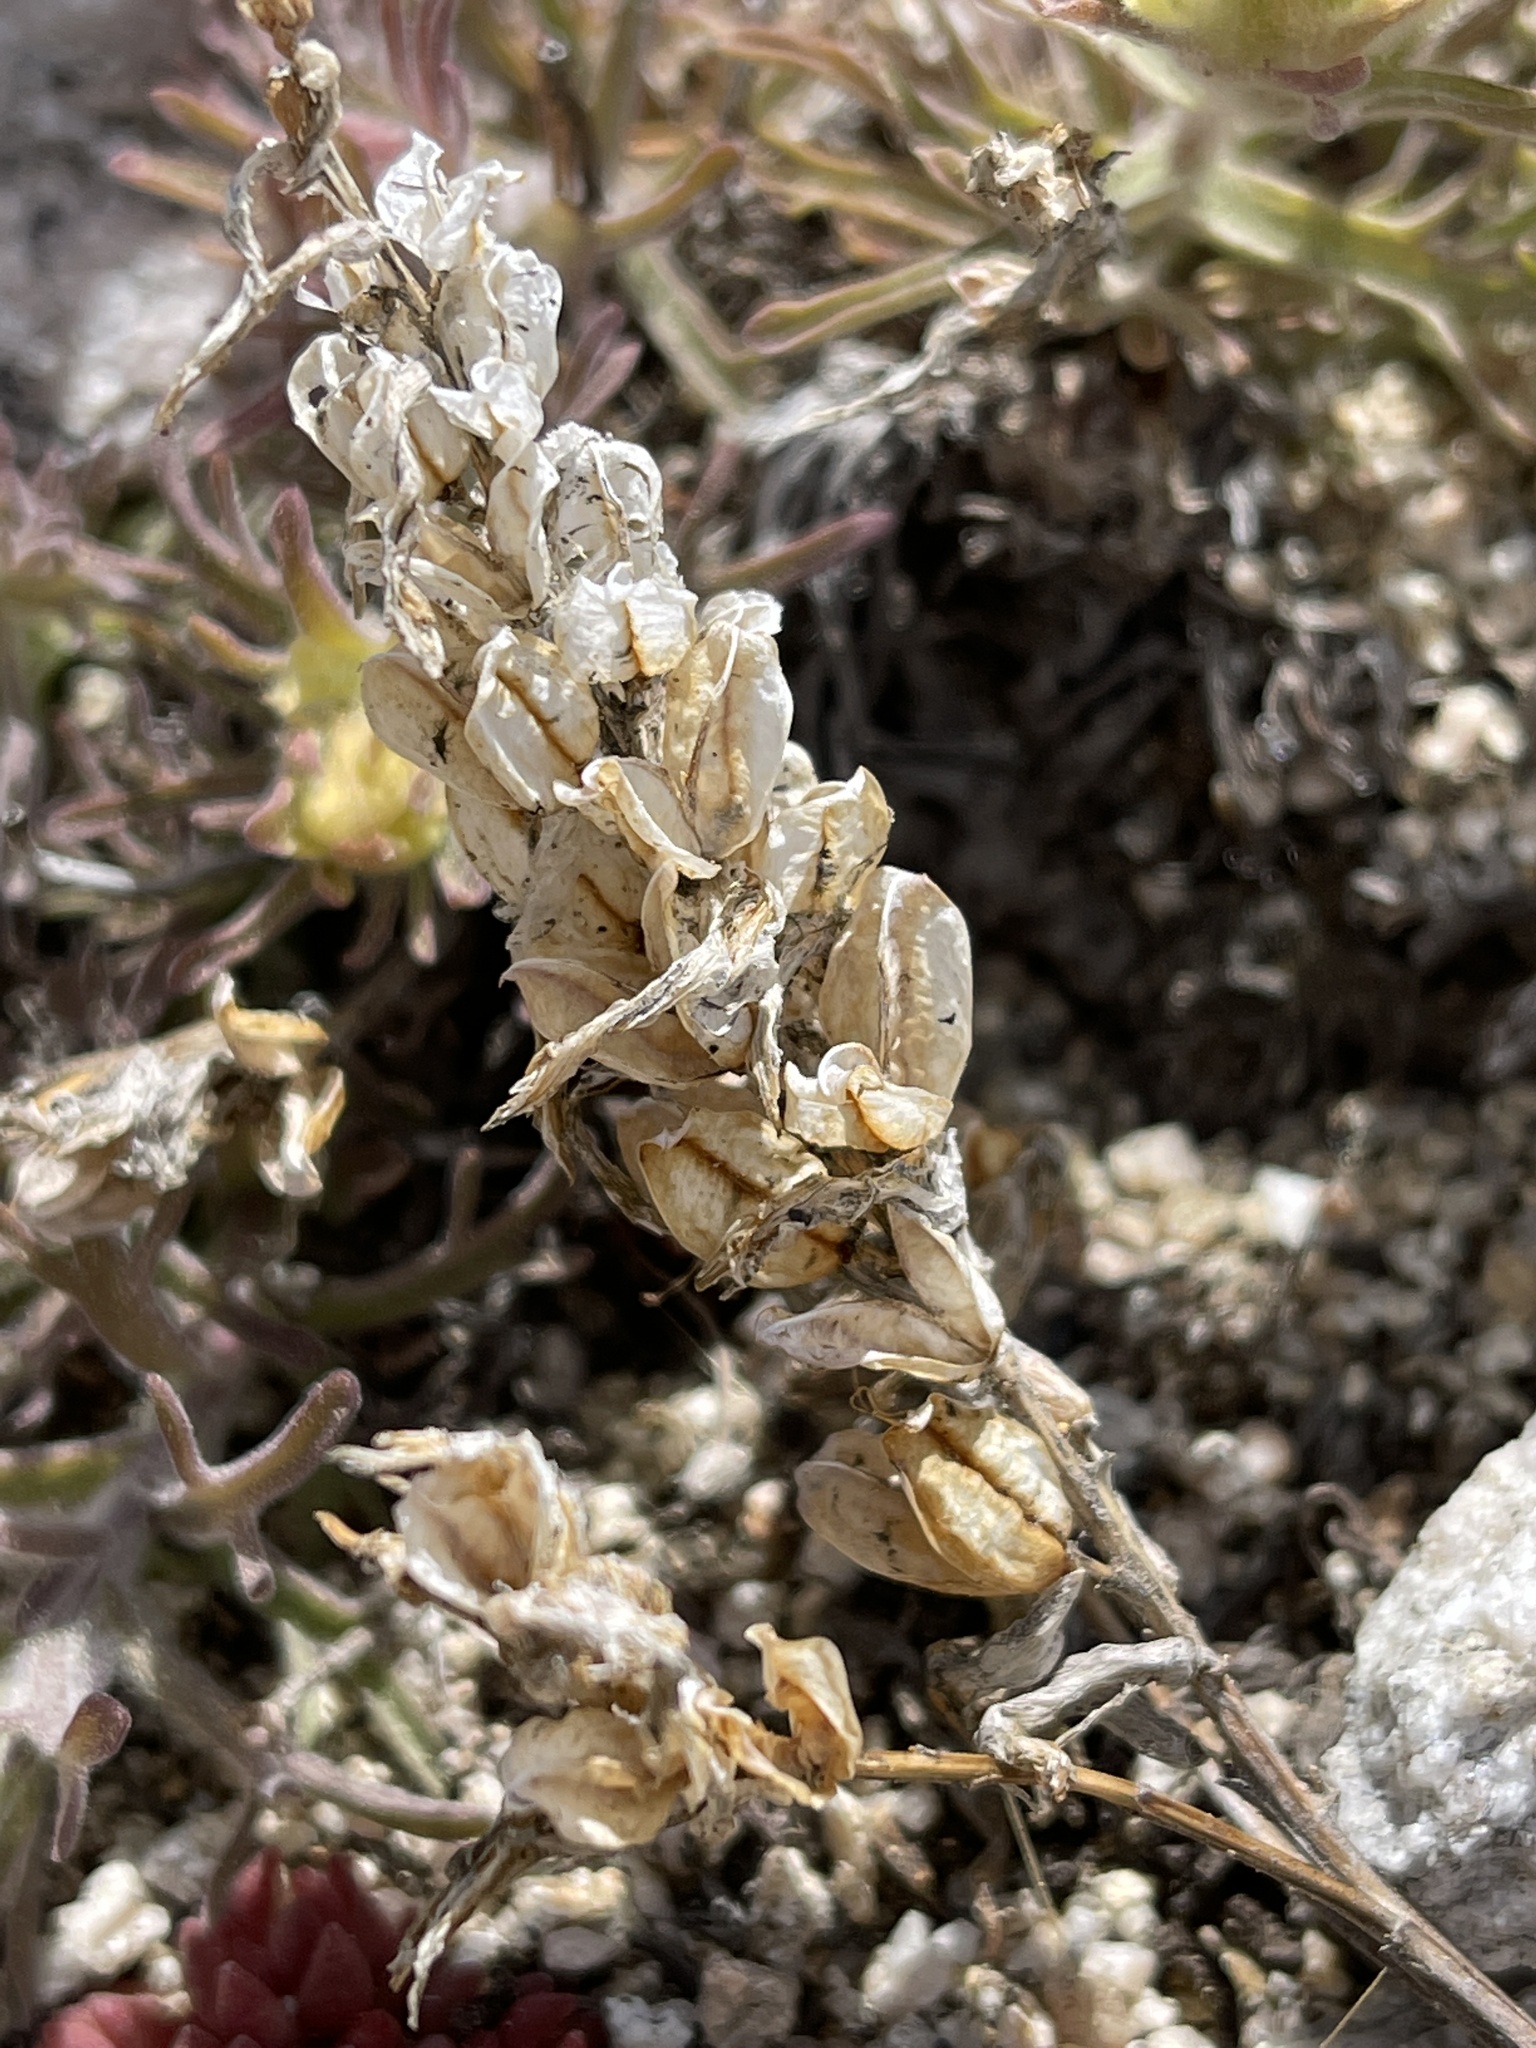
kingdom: Plantae
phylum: Tracheophyta
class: Magnoliopsida
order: Lamiales
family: Orobanchaceae
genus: Castilleja
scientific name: Castilleja arachnoidea
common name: Cobwebby indian paintbrush
